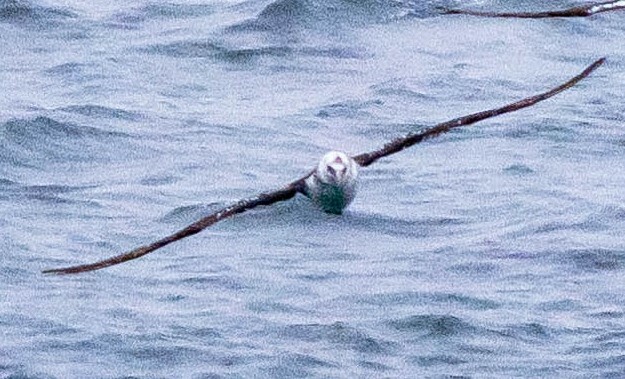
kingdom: Animalia
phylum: Chordata
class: Aves
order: Suliformes
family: Sulidae
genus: Morus
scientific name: Morus bassanus
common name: Northern gannet
